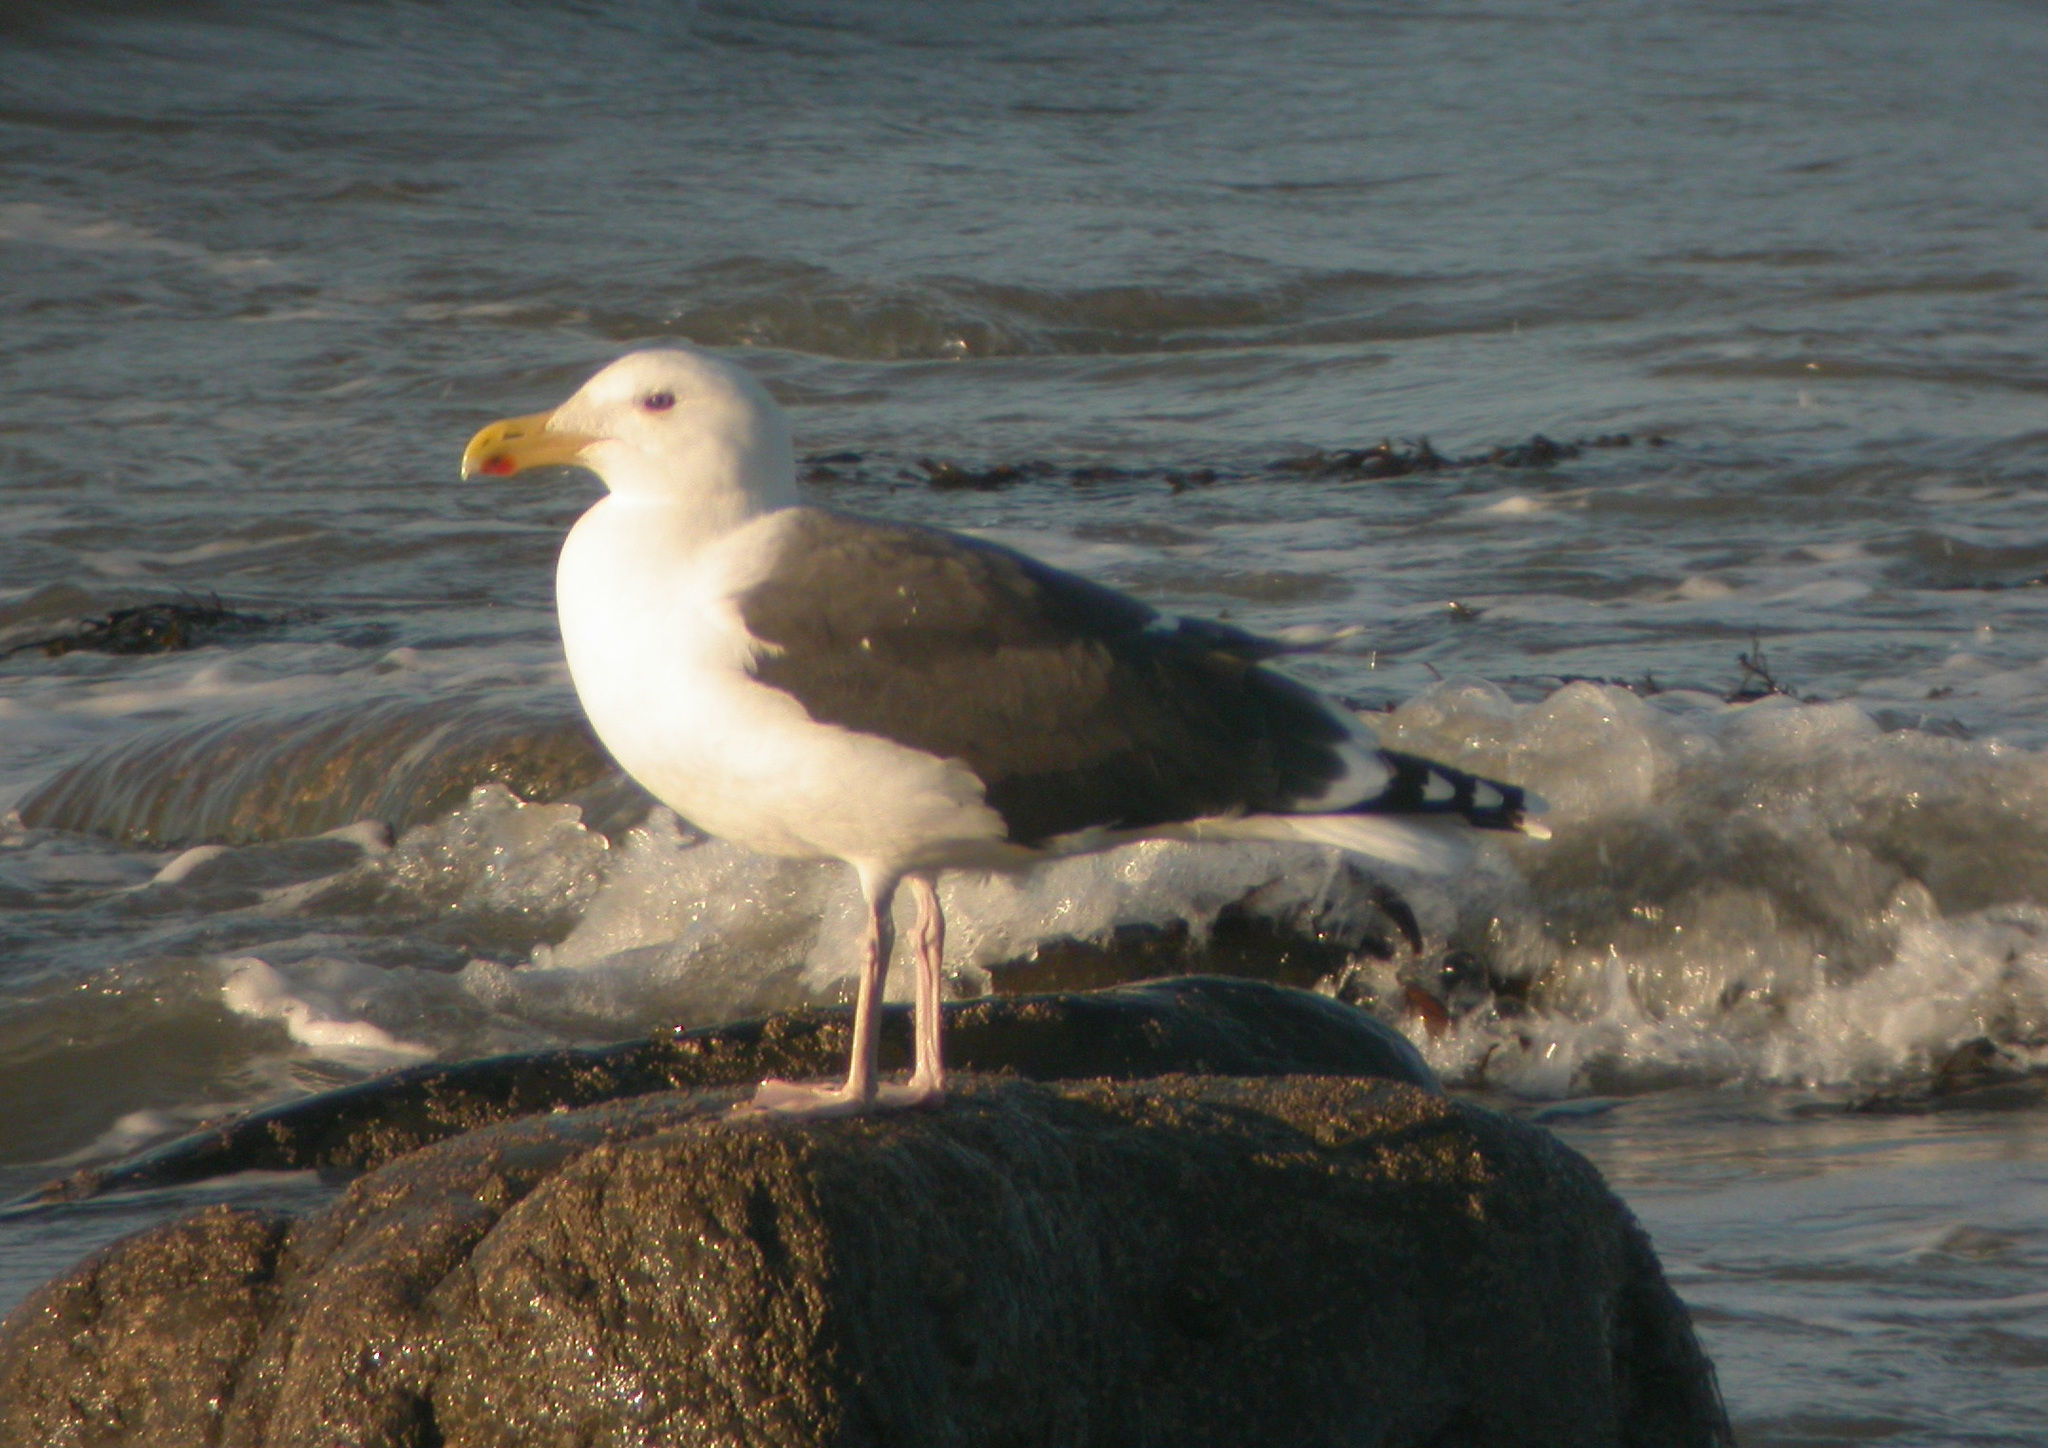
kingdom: Animalia
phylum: Chordata
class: Aves
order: Charadriiformes
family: Laridae
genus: Larus
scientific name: Larus marinus
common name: Great black-backed gull
